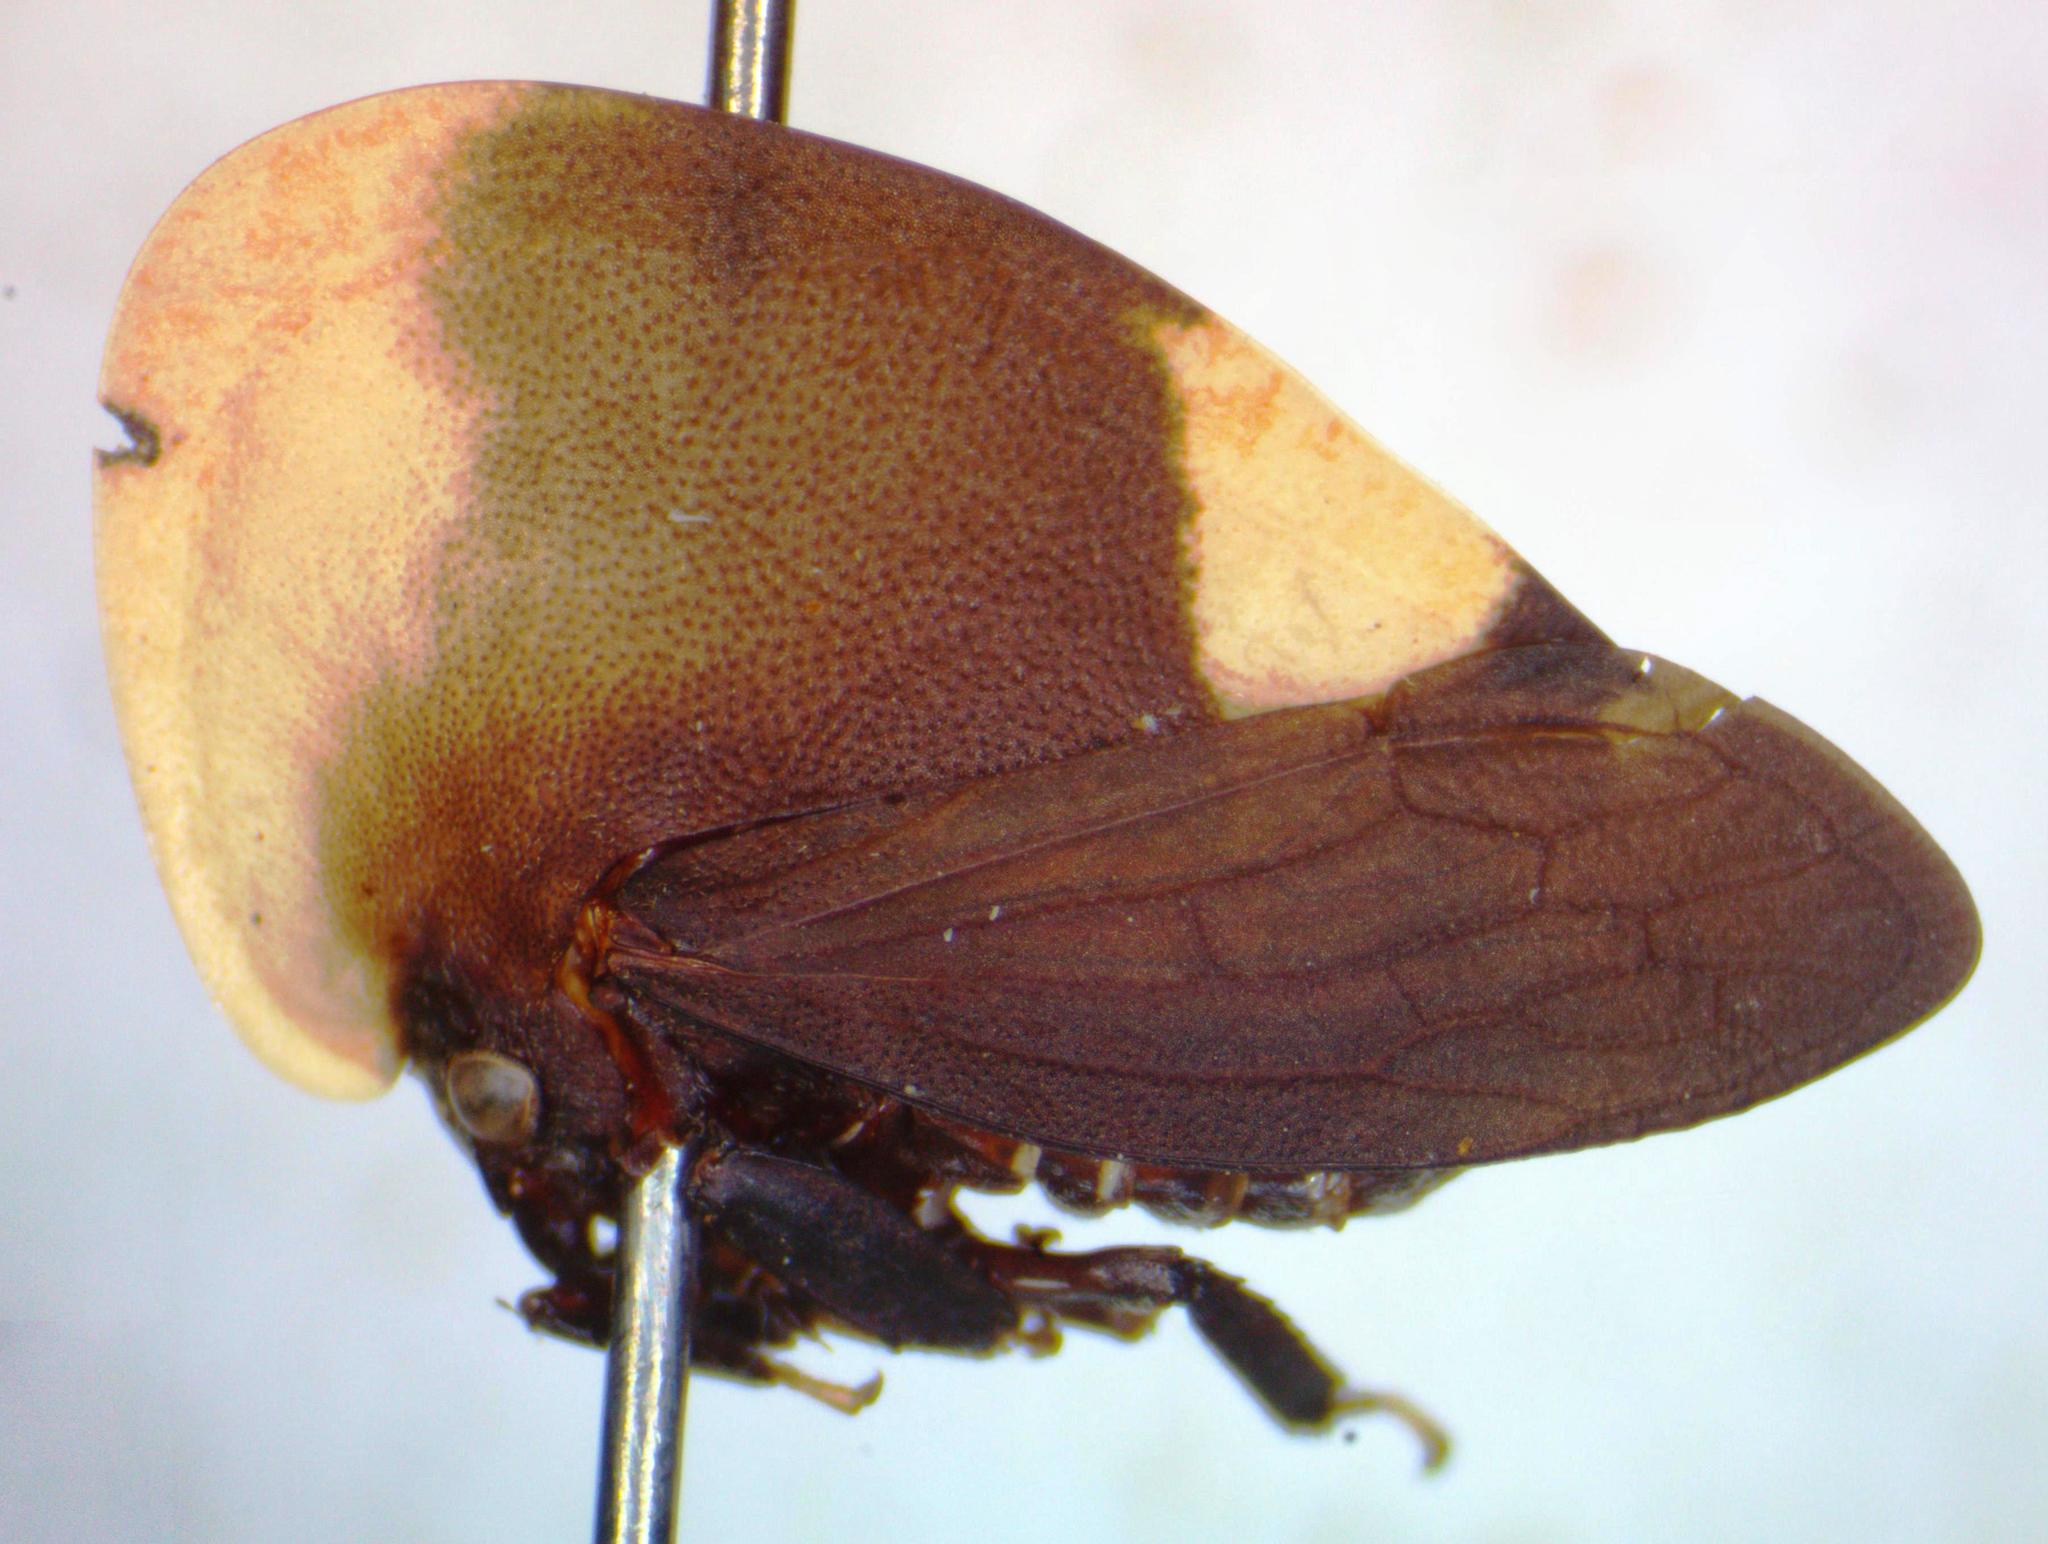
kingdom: Animalia
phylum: Arthropoda
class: Insecta
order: Hemiptera
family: Membracidae
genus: Membracis
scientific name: Membracis dorsata
